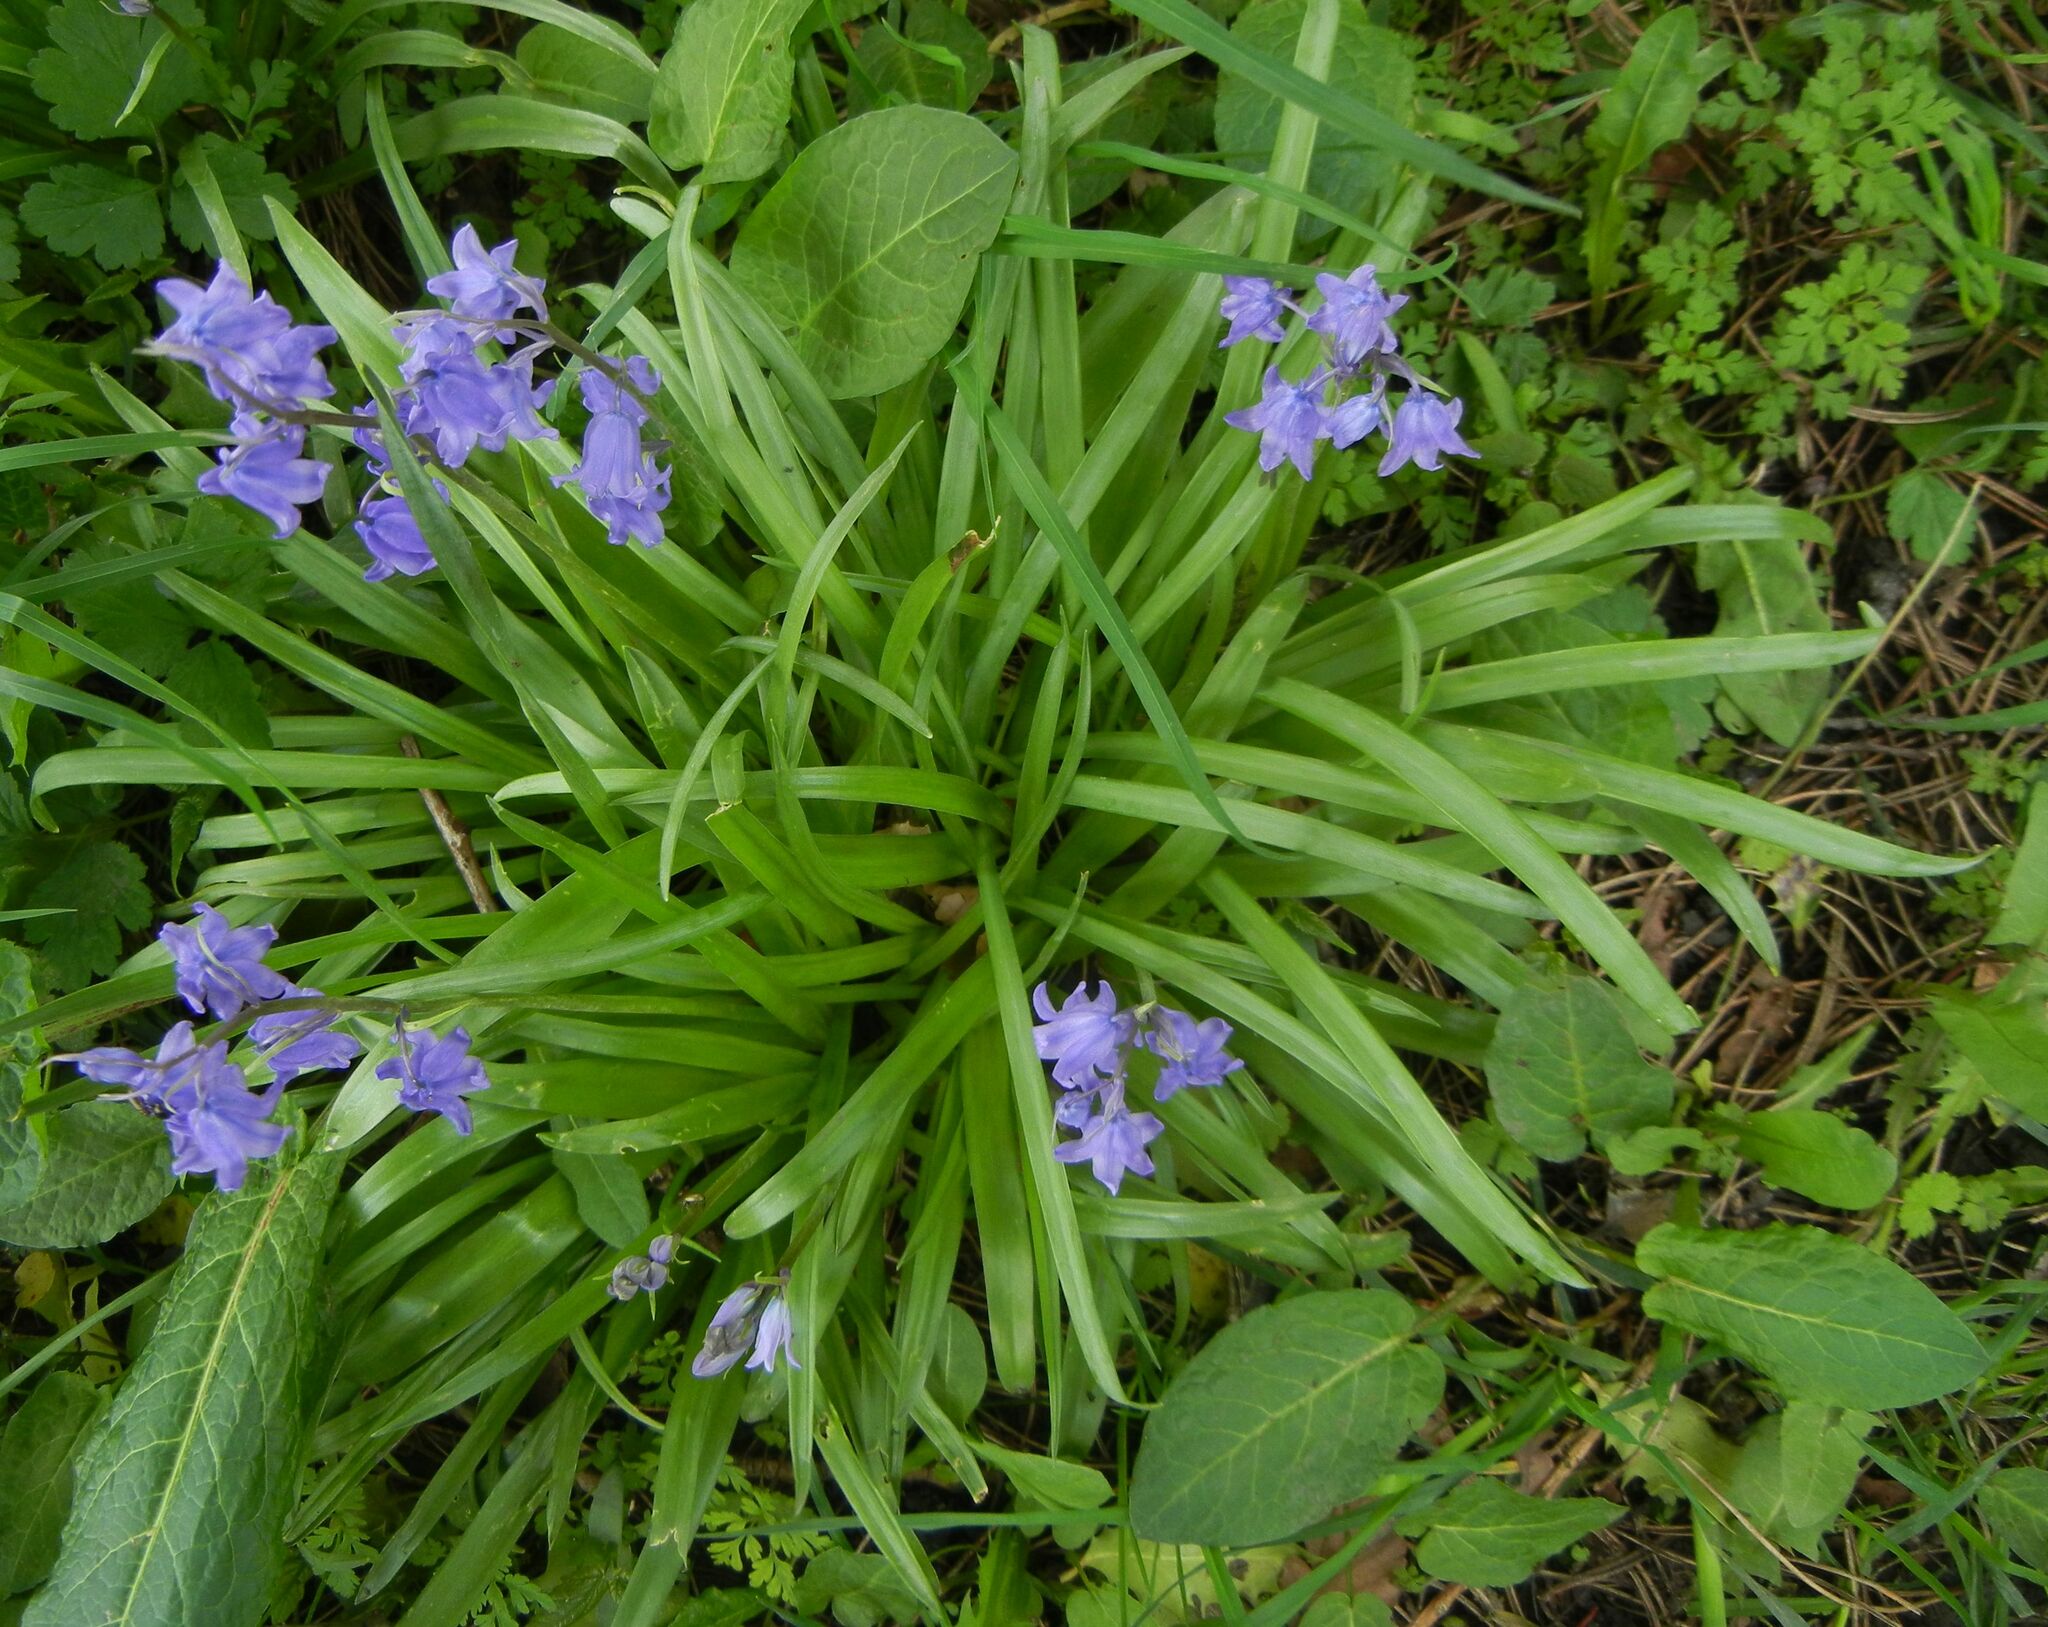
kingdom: Plantae
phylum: Tracheophyta
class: Liliopsida
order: Asparagales
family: Asparagaceae
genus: Hyacinthoides
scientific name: Hyacinthoides massartiana
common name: Hyacinthoides
